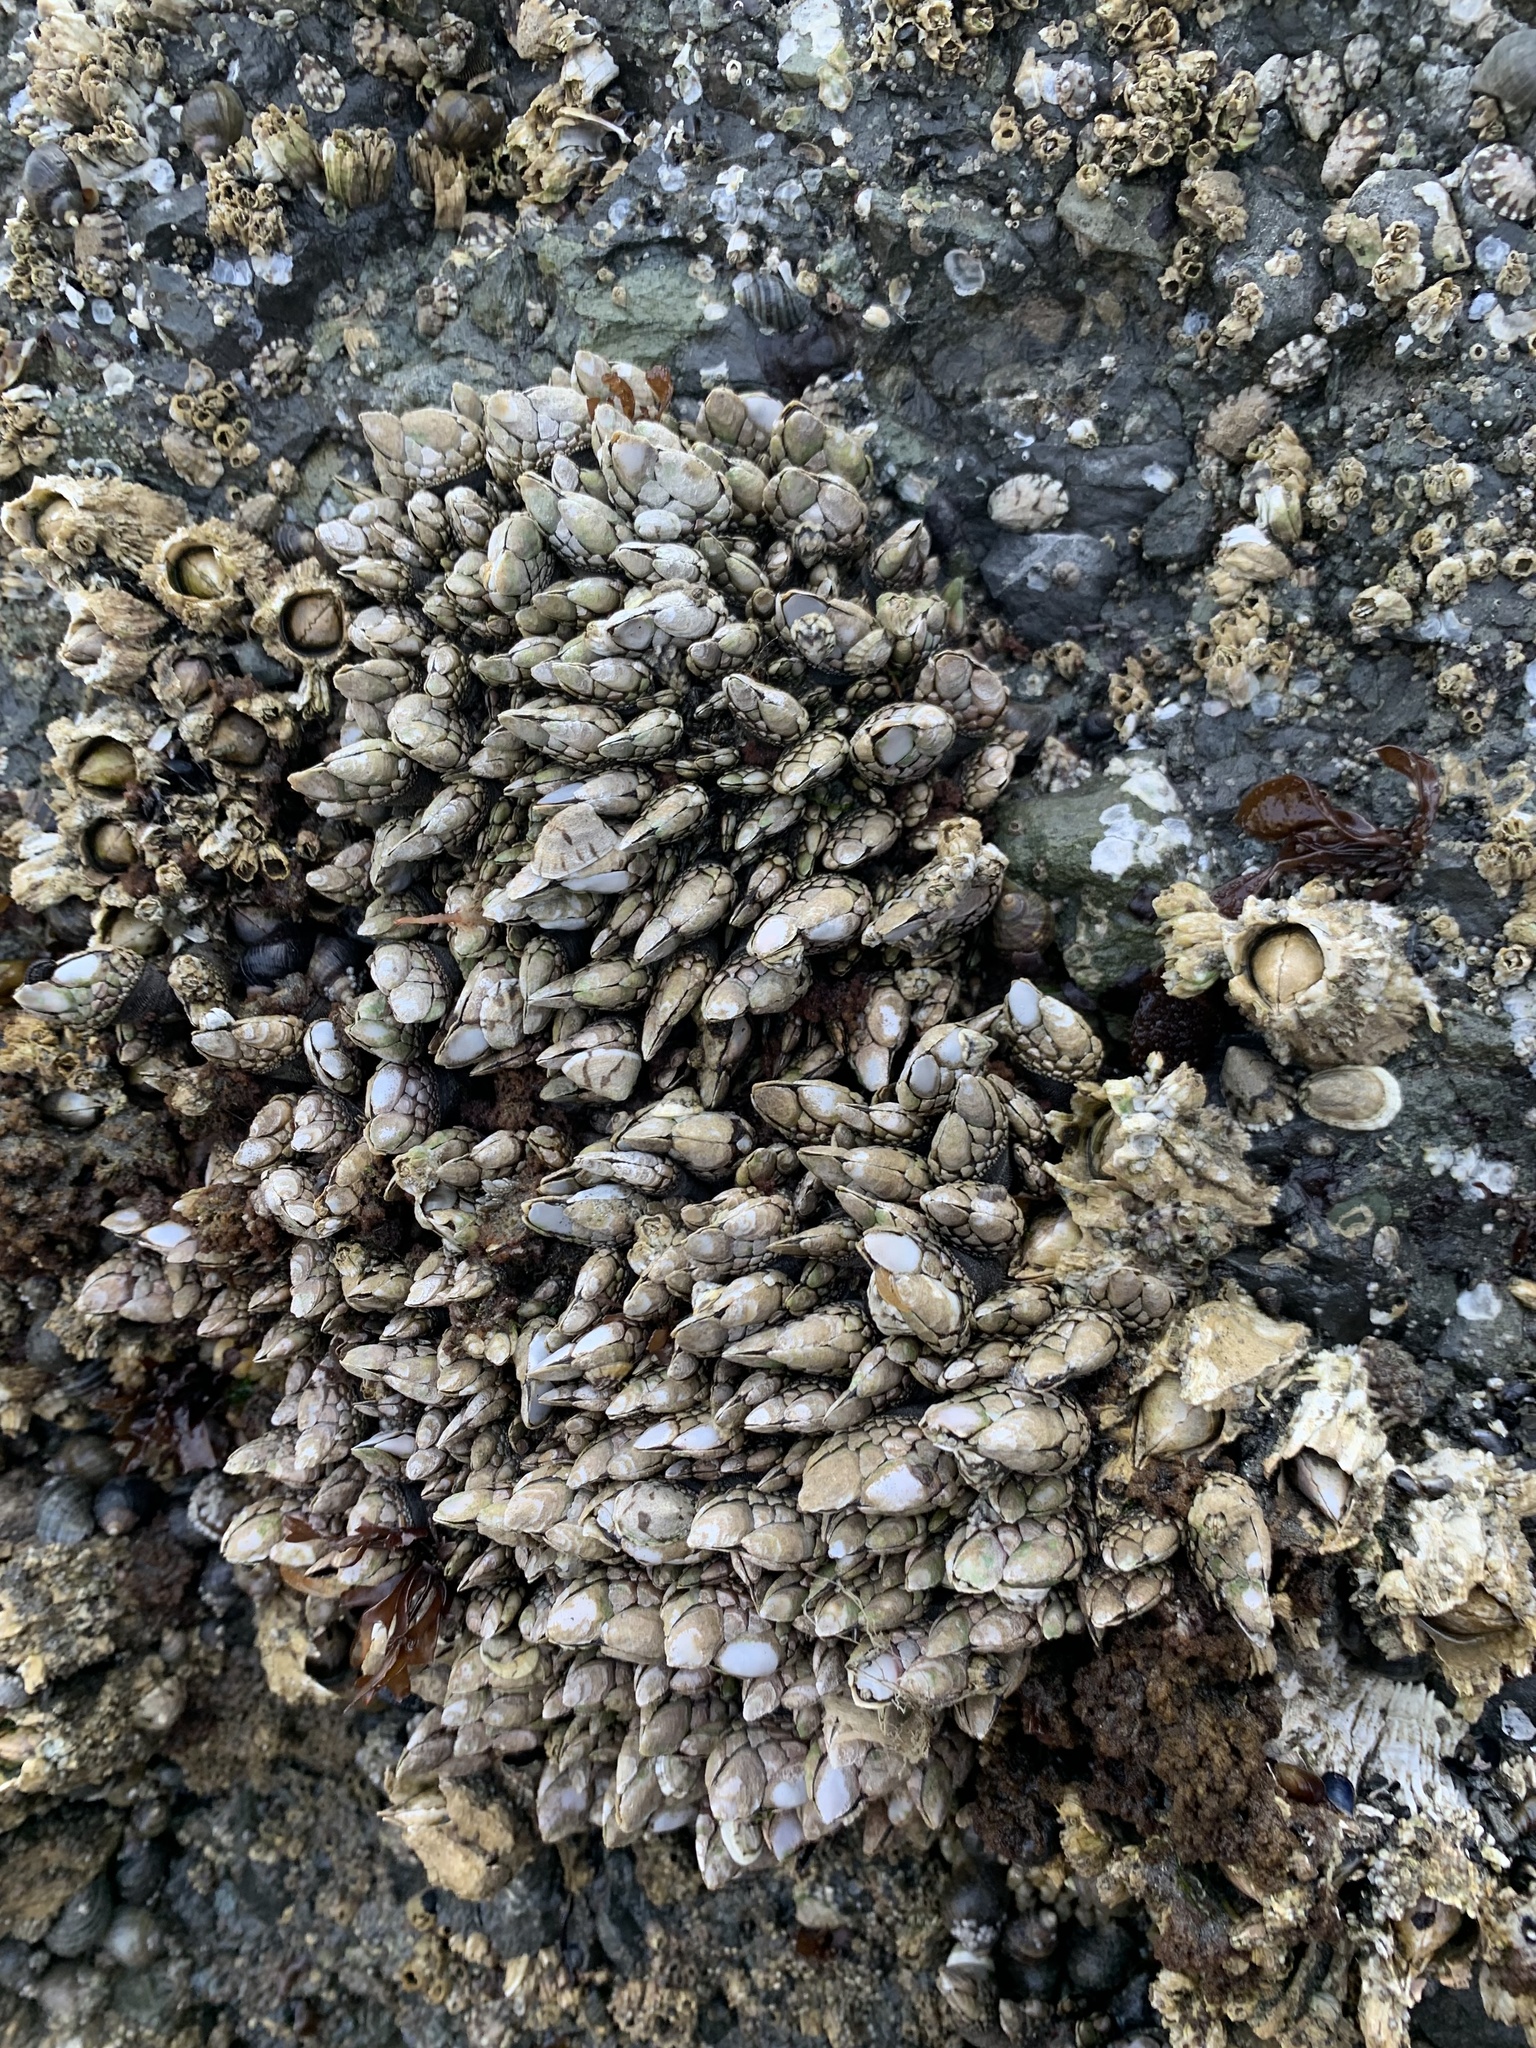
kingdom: Animalia
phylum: Arthropoda
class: Maxillopoda
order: Pedunculata
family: Pollicipedidae
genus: Pollicipes
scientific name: Pollicipes polymerus
